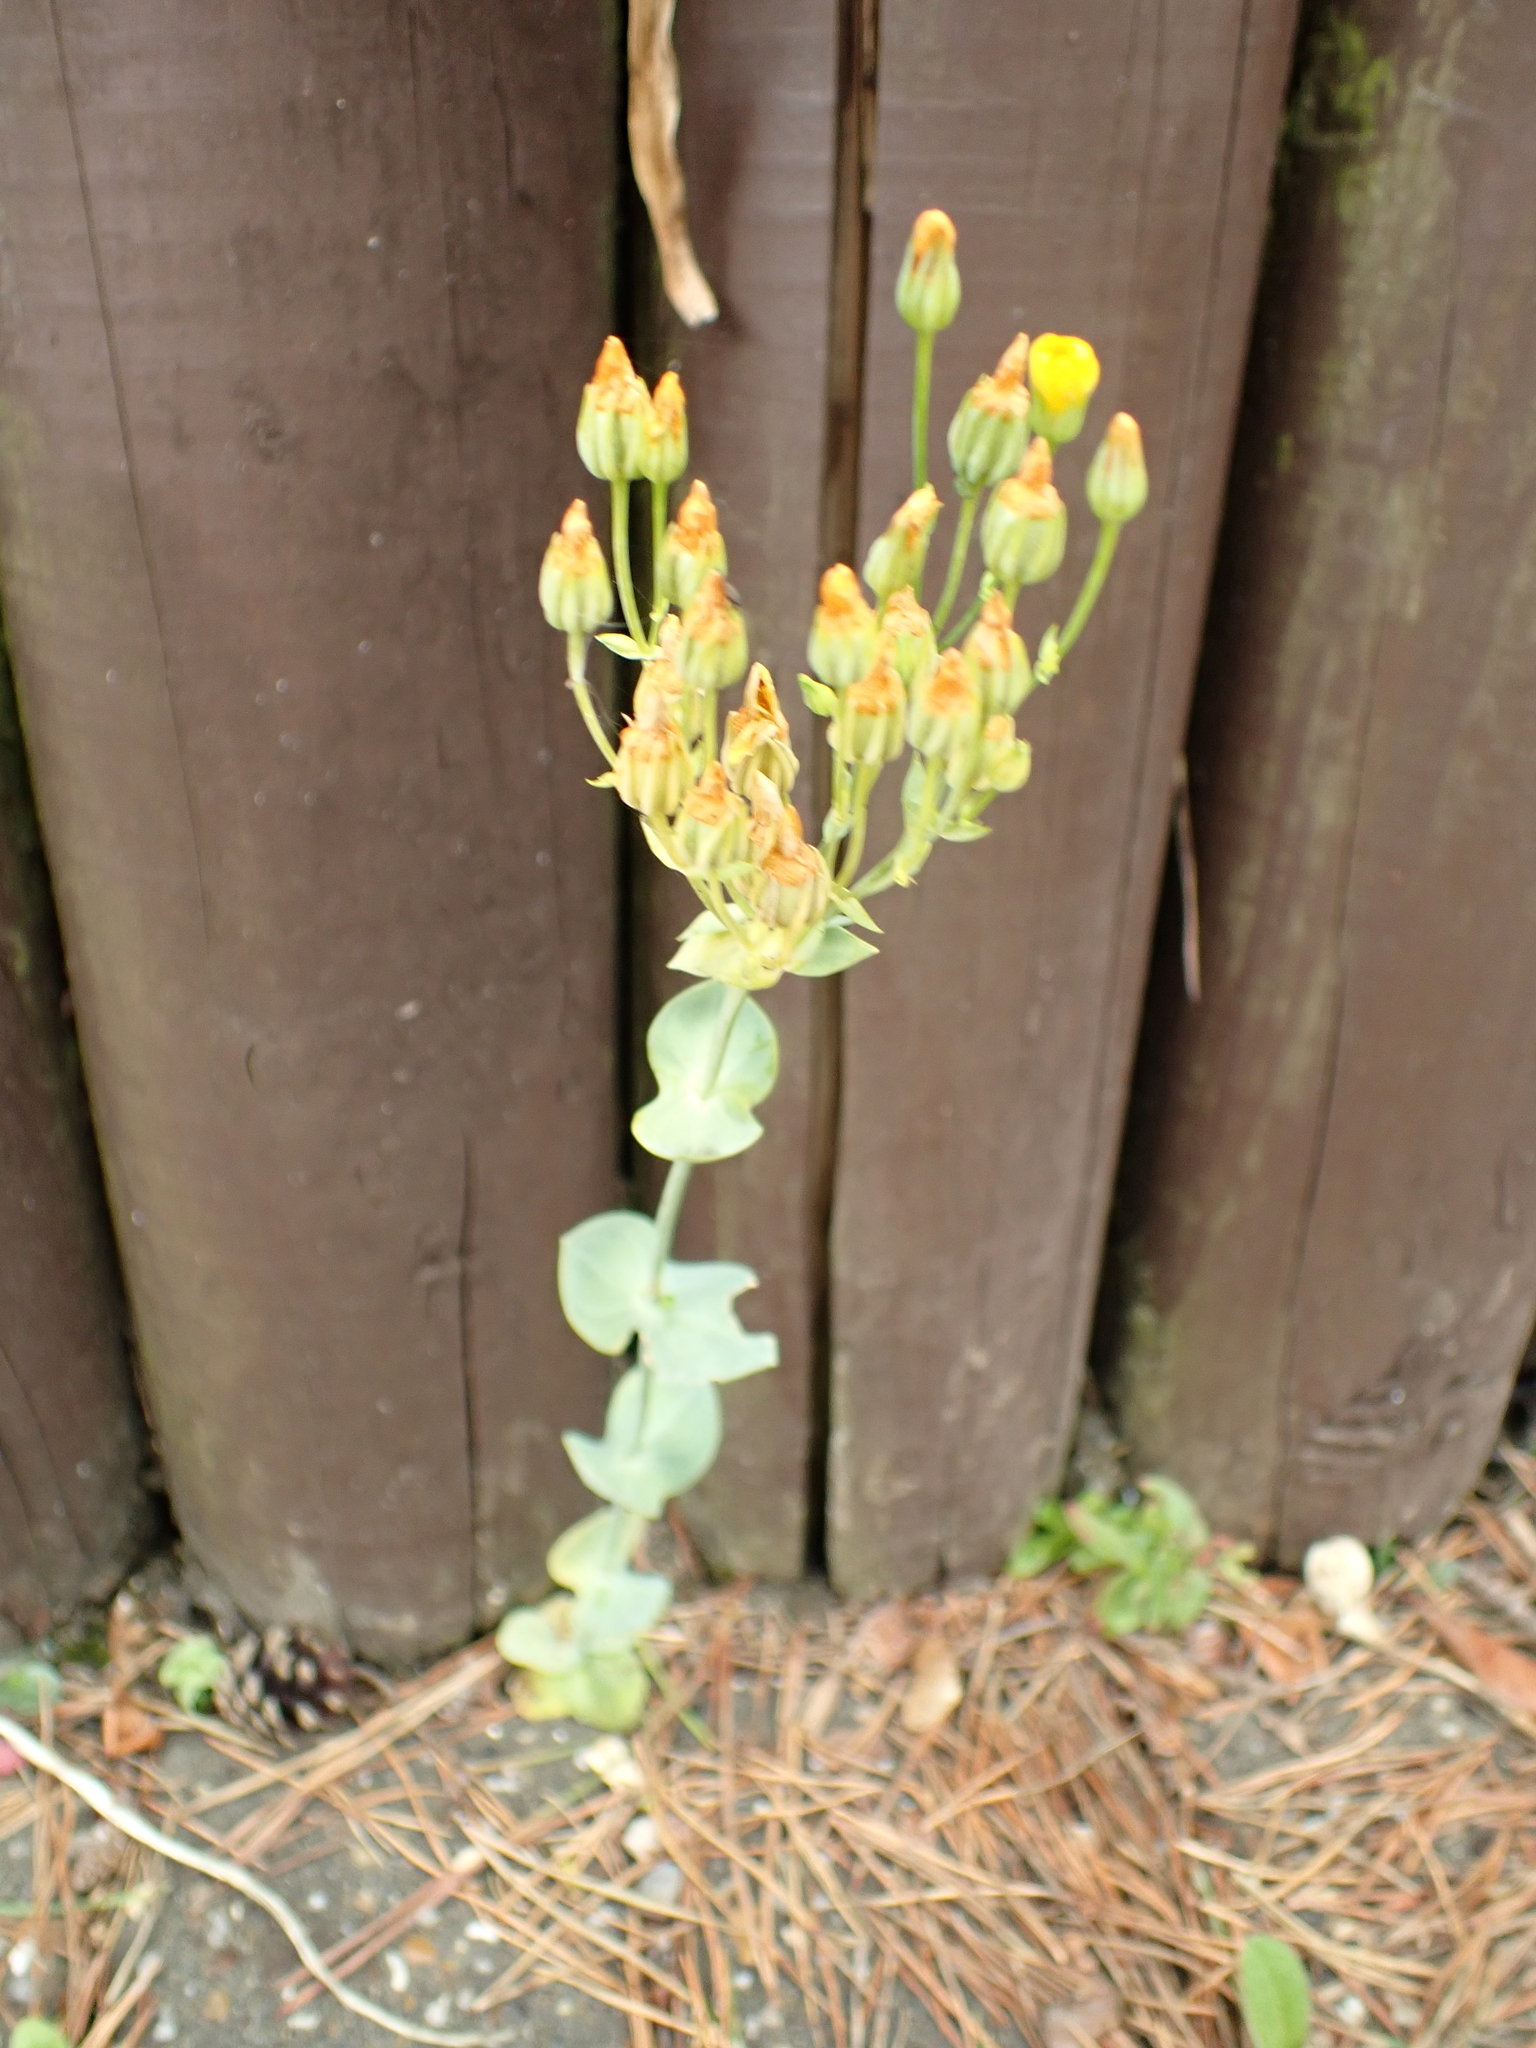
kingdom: Plantae
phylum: Tracheophyta
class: Magnoliopsida
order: Gentianales
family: Gentianaceae
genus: Blackstonia
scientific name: Blackstonia perfoliata
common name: Yellow-wort
